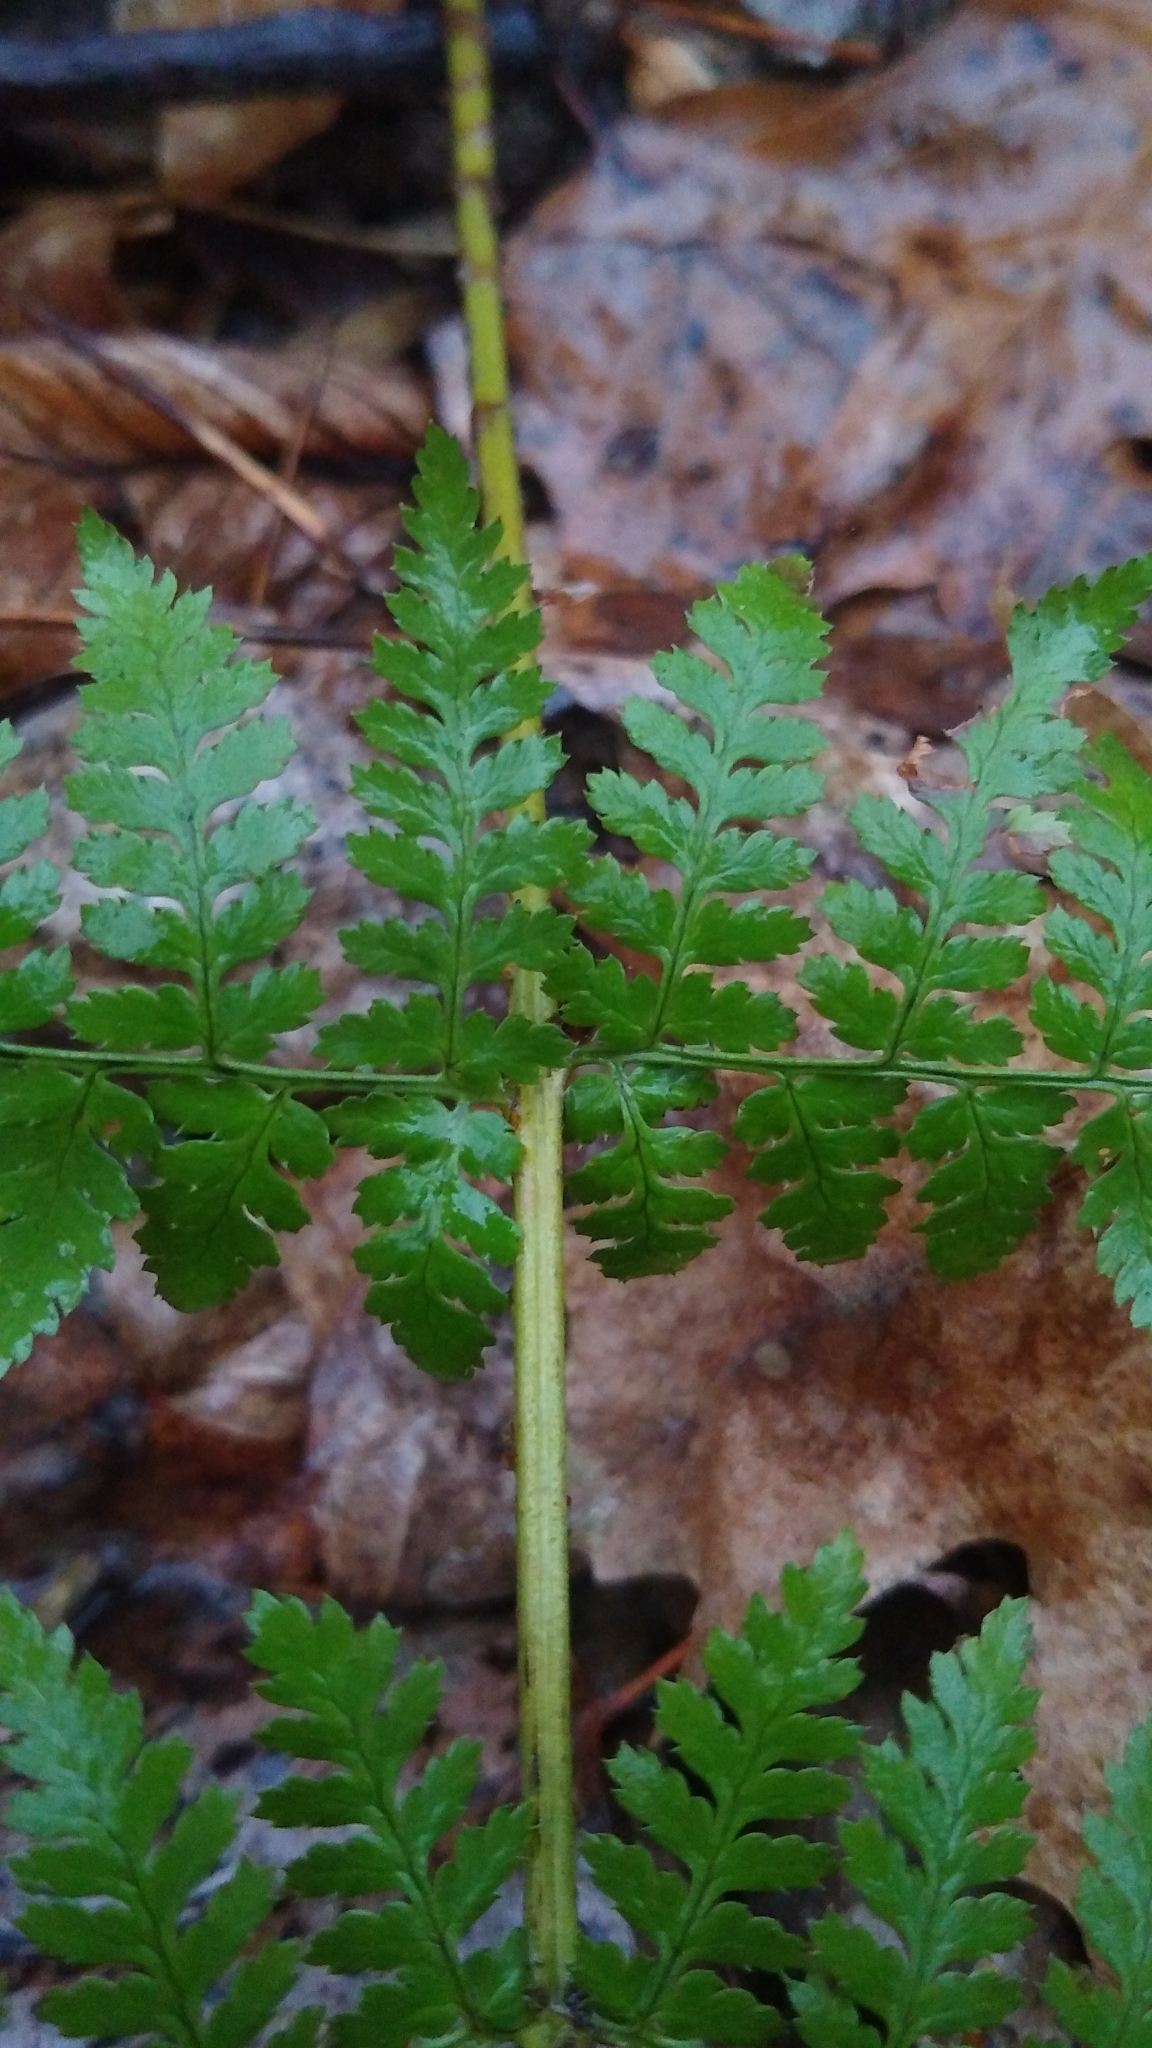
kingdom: Plantae
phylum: Tracheophyta
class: Polypodiopsida
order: Polypodiales
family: Dryopteridaceae
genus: Dryopteris
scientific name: Dryopteris intermedia
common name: Evergreen wood fern
